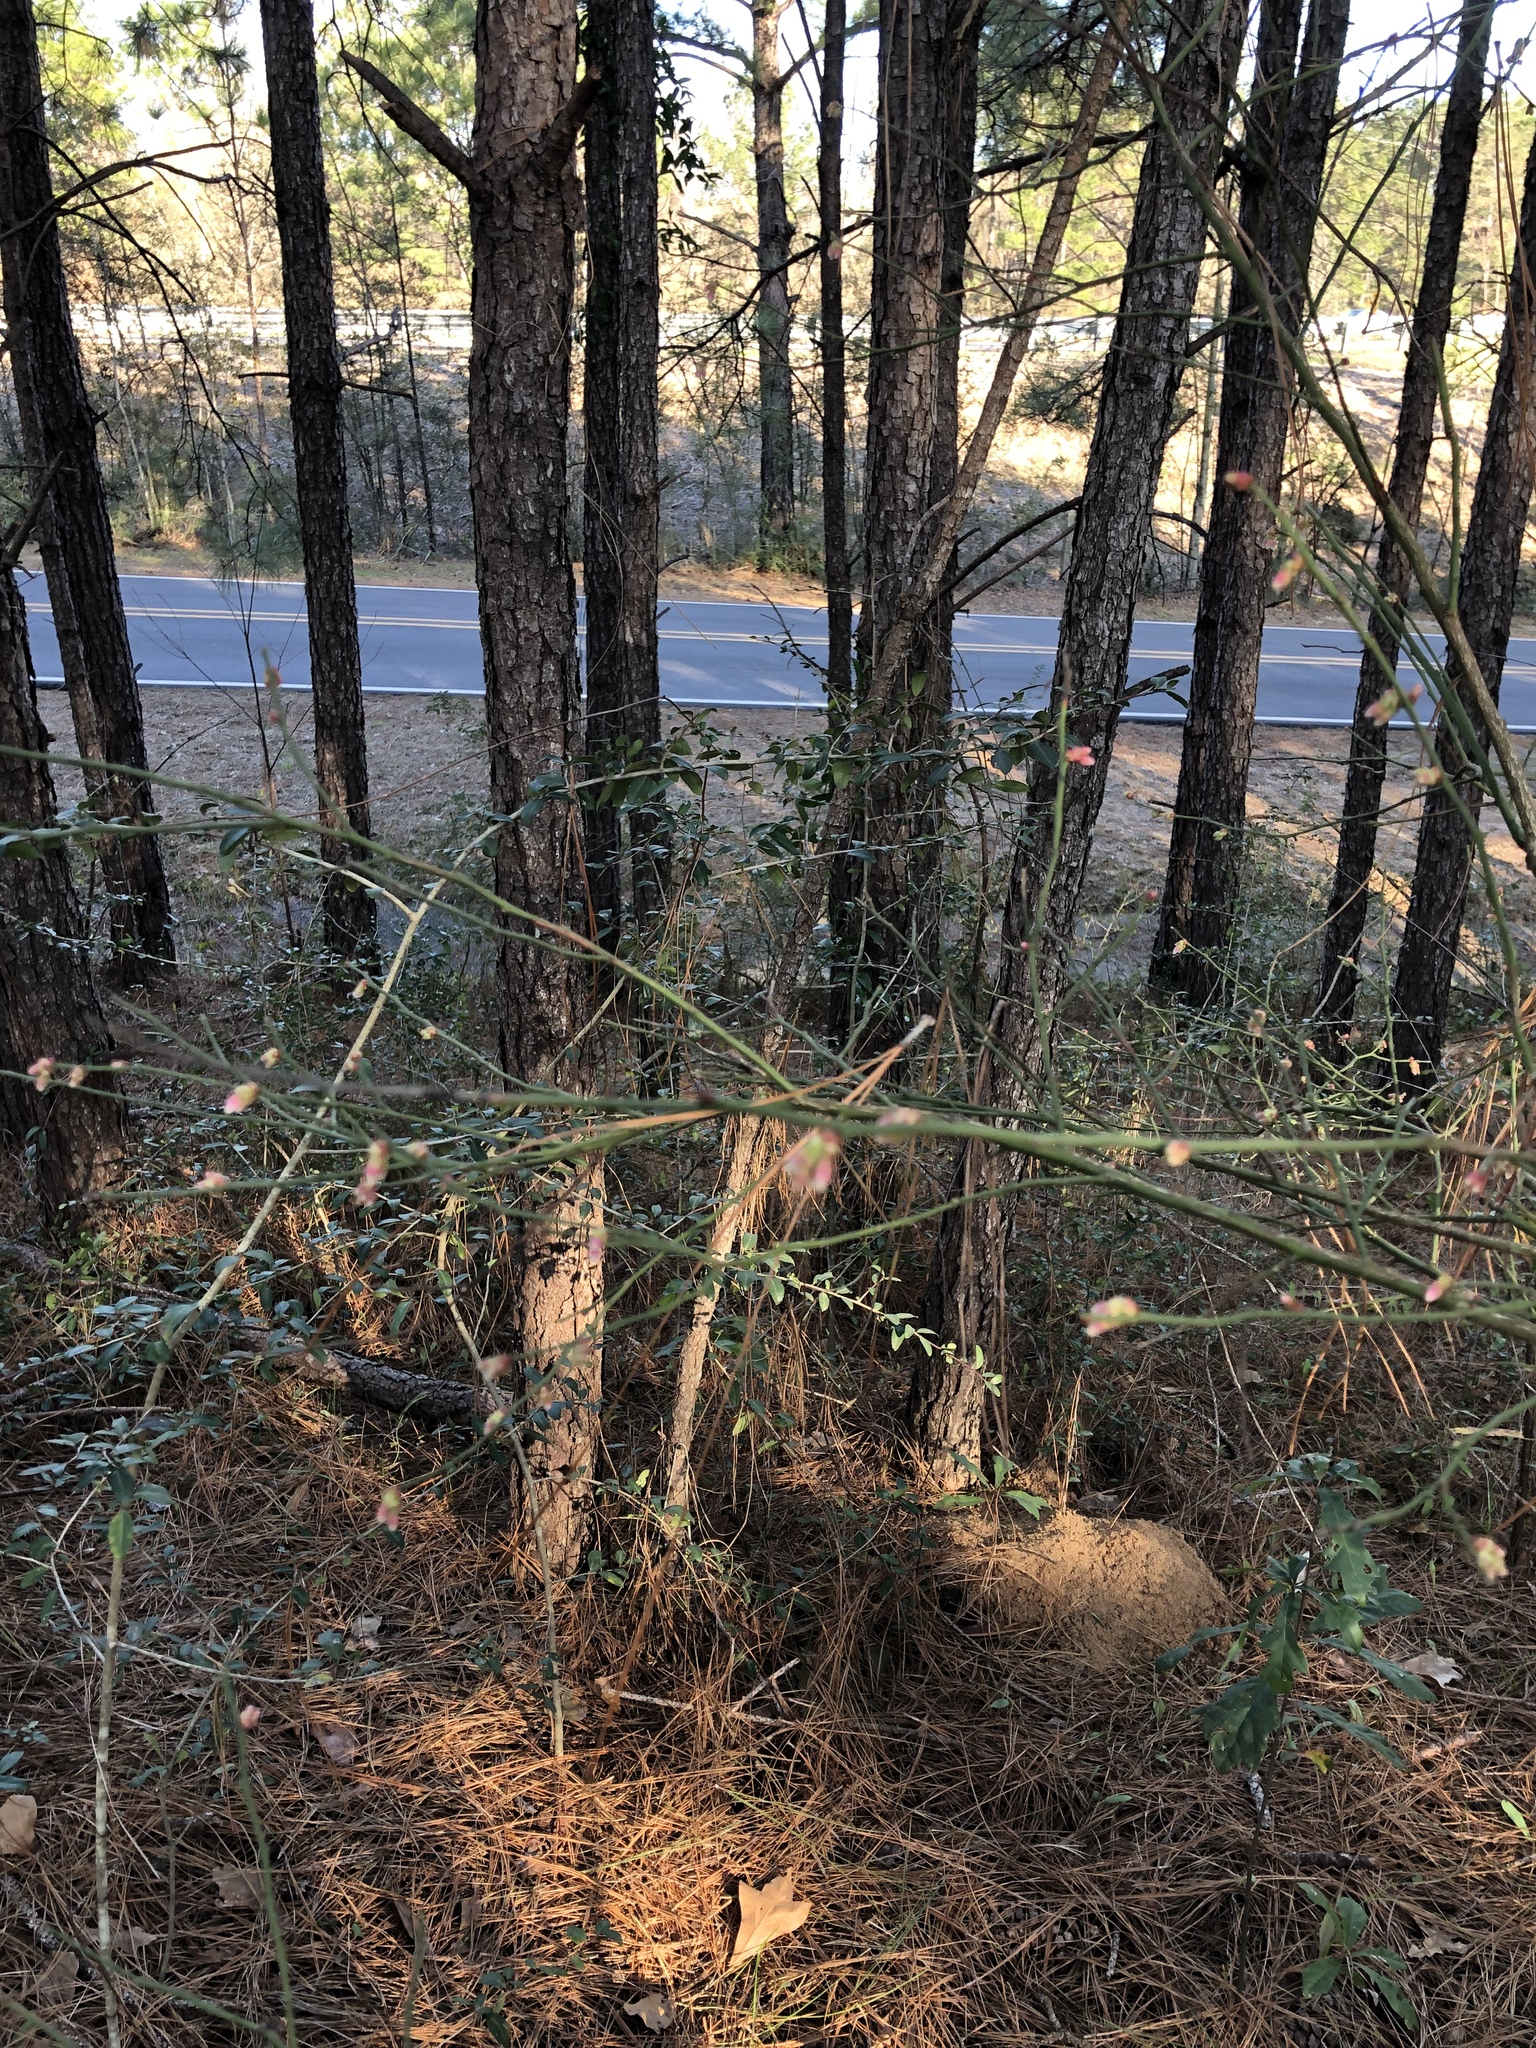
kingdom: Plantae
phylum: Tracheophyta
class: Magnoliopsida
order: Ericales
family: Ericaceae
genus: Vaccinium
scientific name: Vaccinium corymbosum
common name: Blueberry
